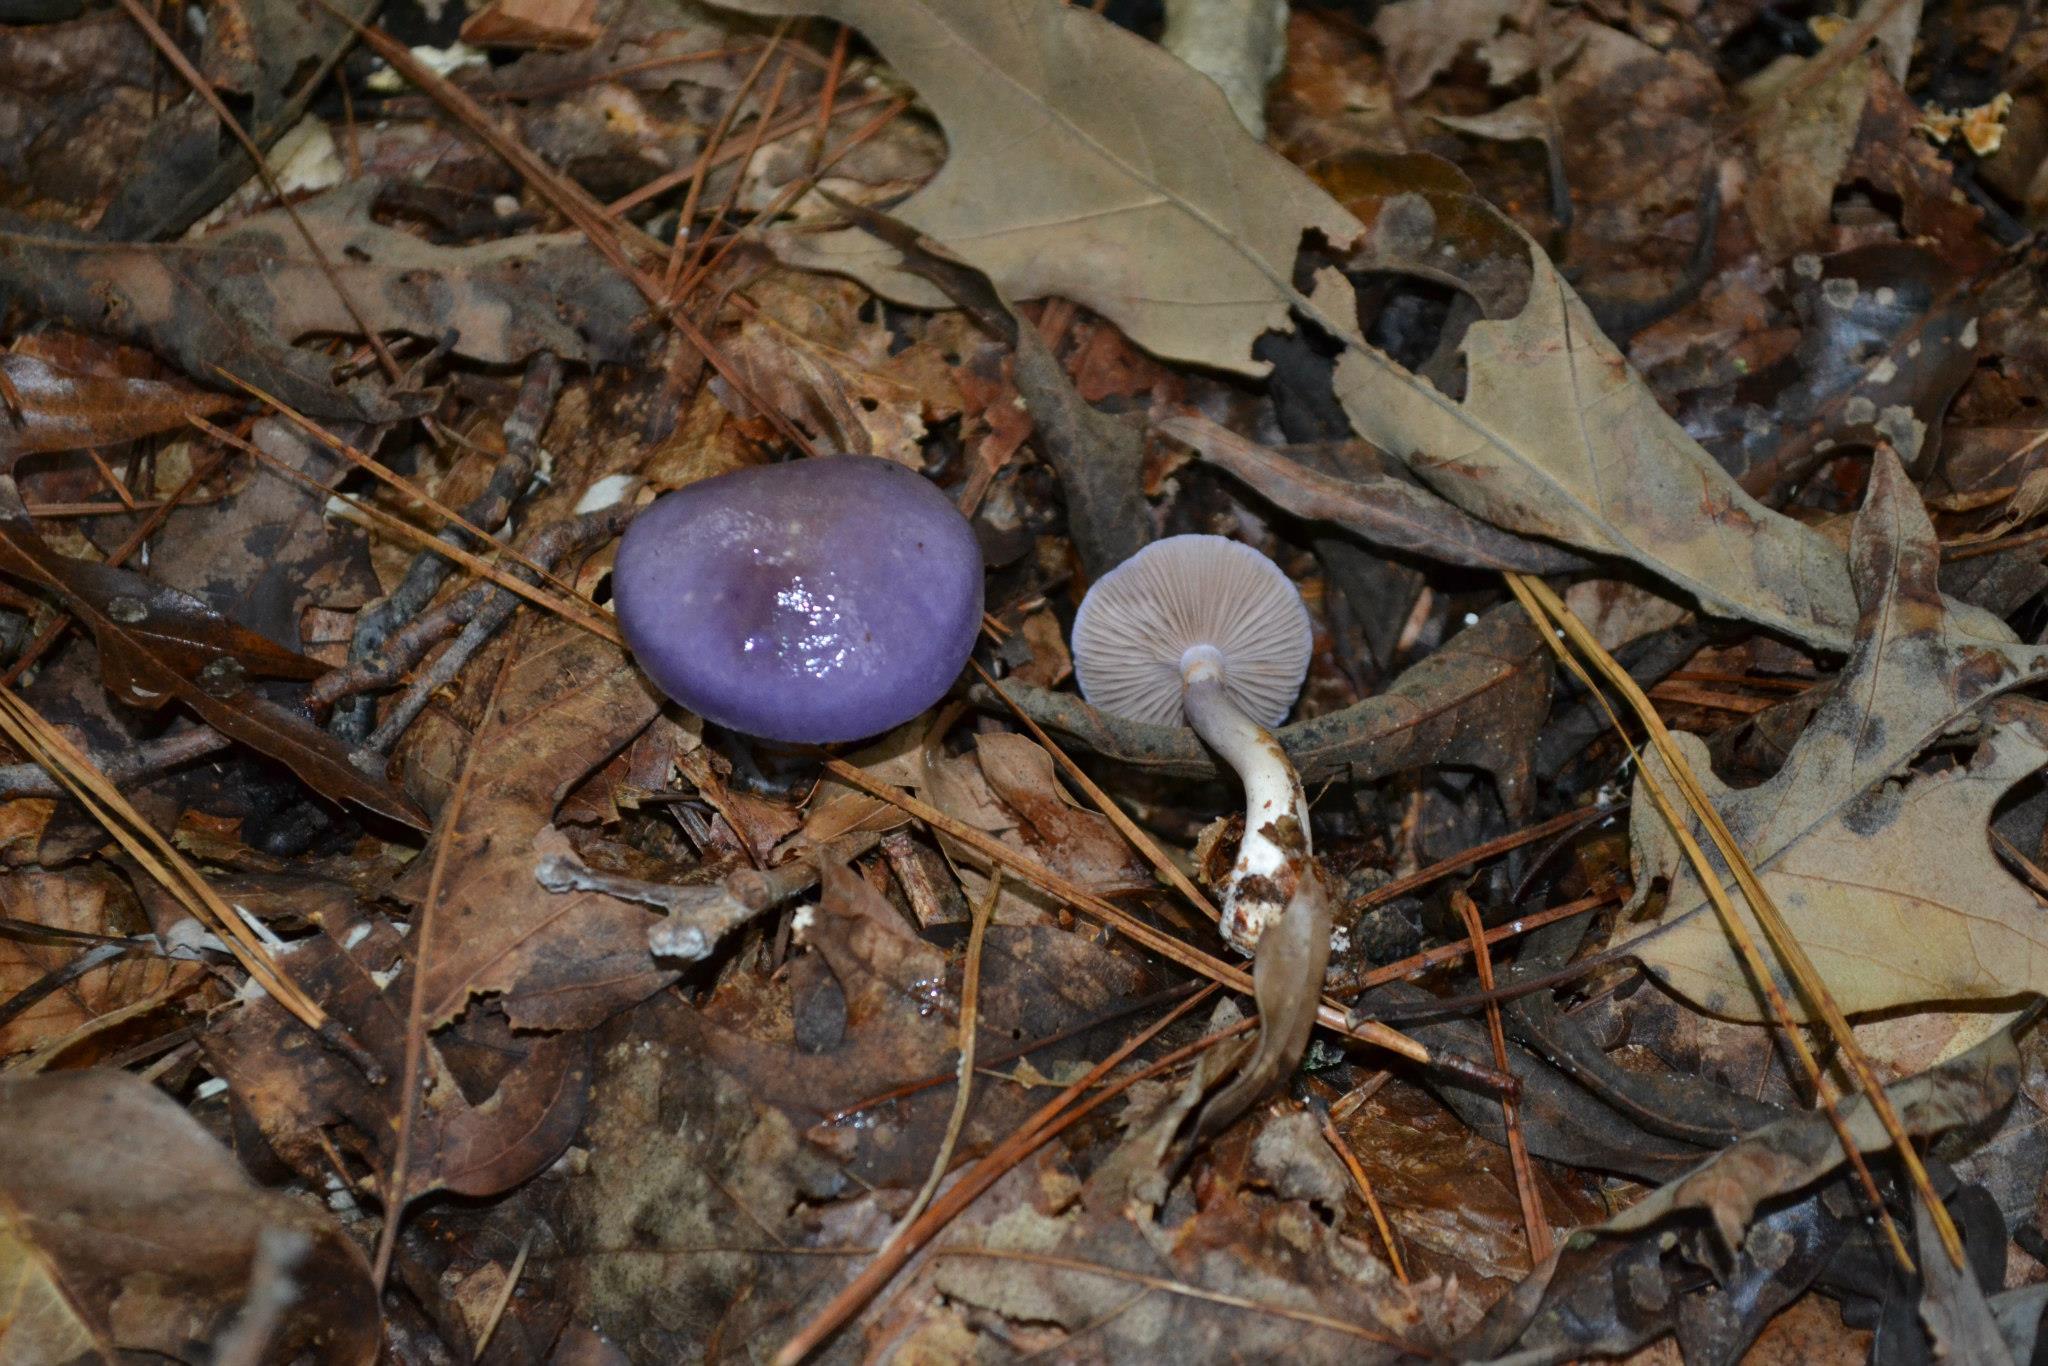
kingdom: Fungi
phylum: Basidiomycota
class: Agaricomycetes
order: Agaricales
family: Cortinariaceae
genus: Cortinarius
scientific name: Cortinarius iodes
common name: Viscid violet cort
